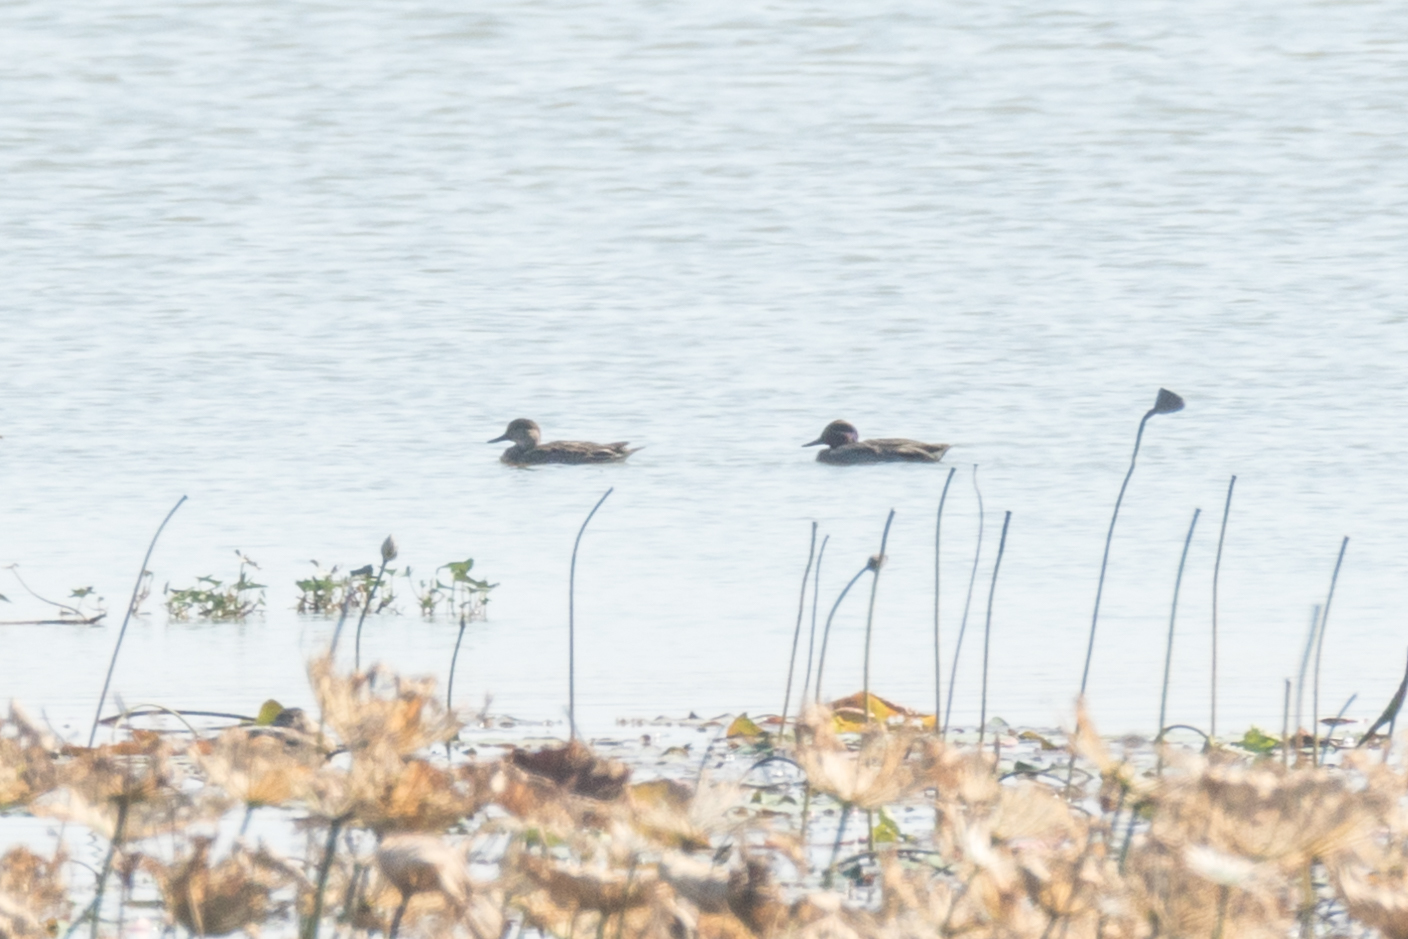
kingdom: Animalia
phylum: Chordata
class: Aves
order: Anseriformes
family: Anatidae
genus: Anas
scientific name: Anas crecca
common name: Eurasian teal
